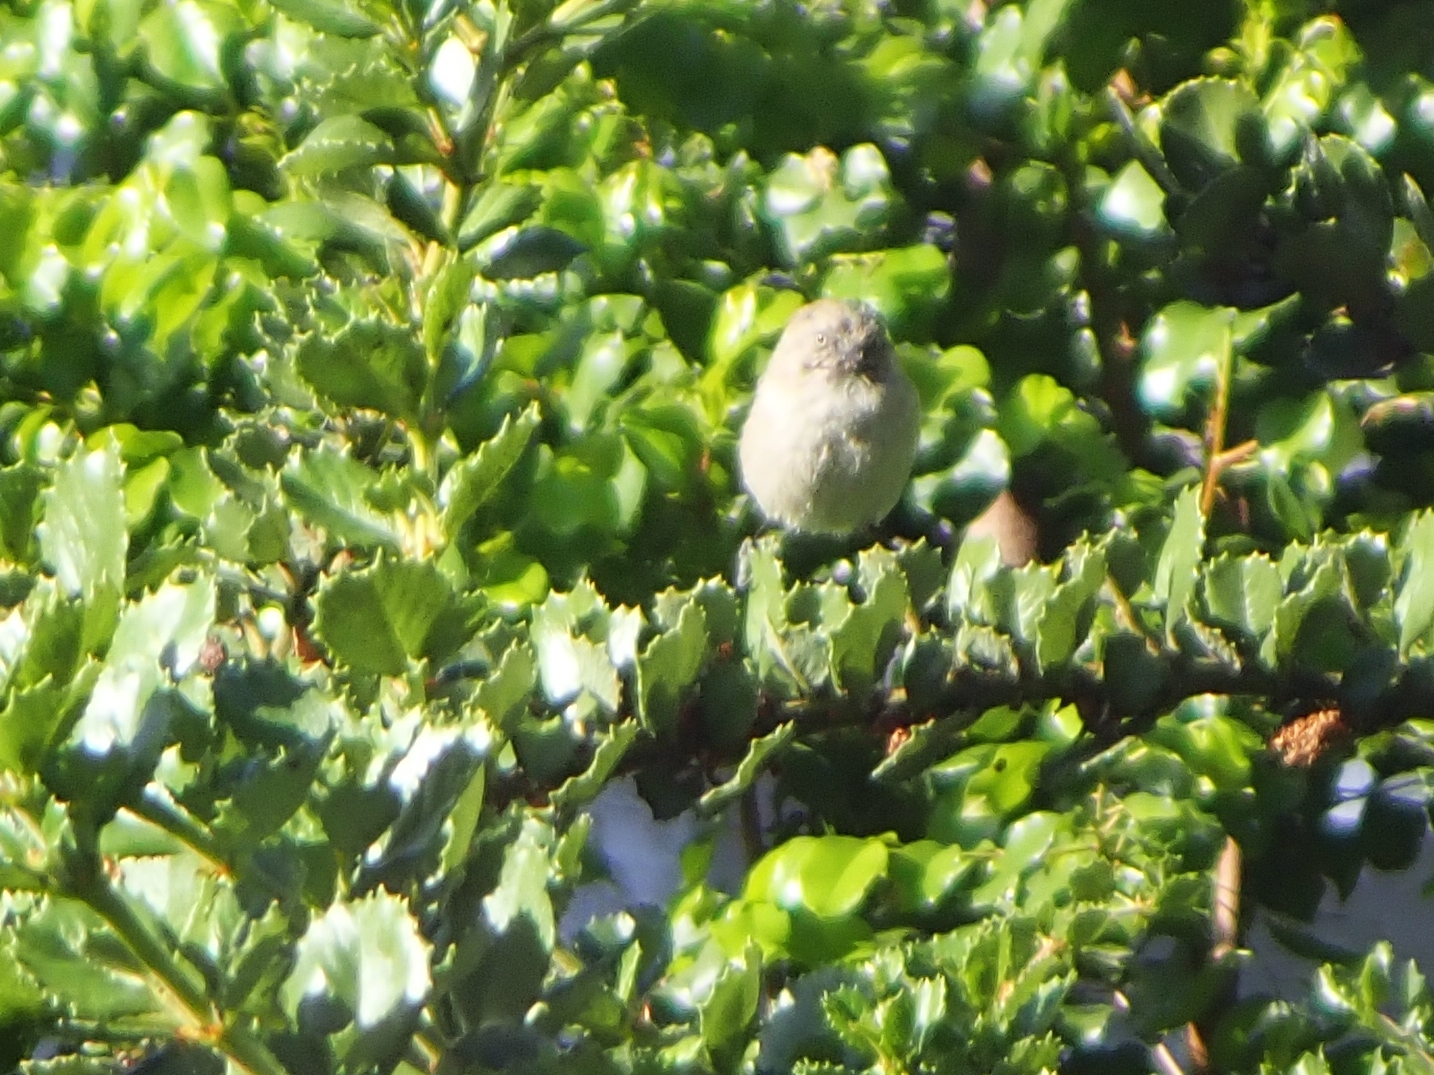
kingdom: Animalia
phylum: Chordata
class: Aves
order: Passeriformes
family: Aegithalidae
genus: Psaltriparus
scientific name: Psaltriparus minimus
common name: American bushtit
